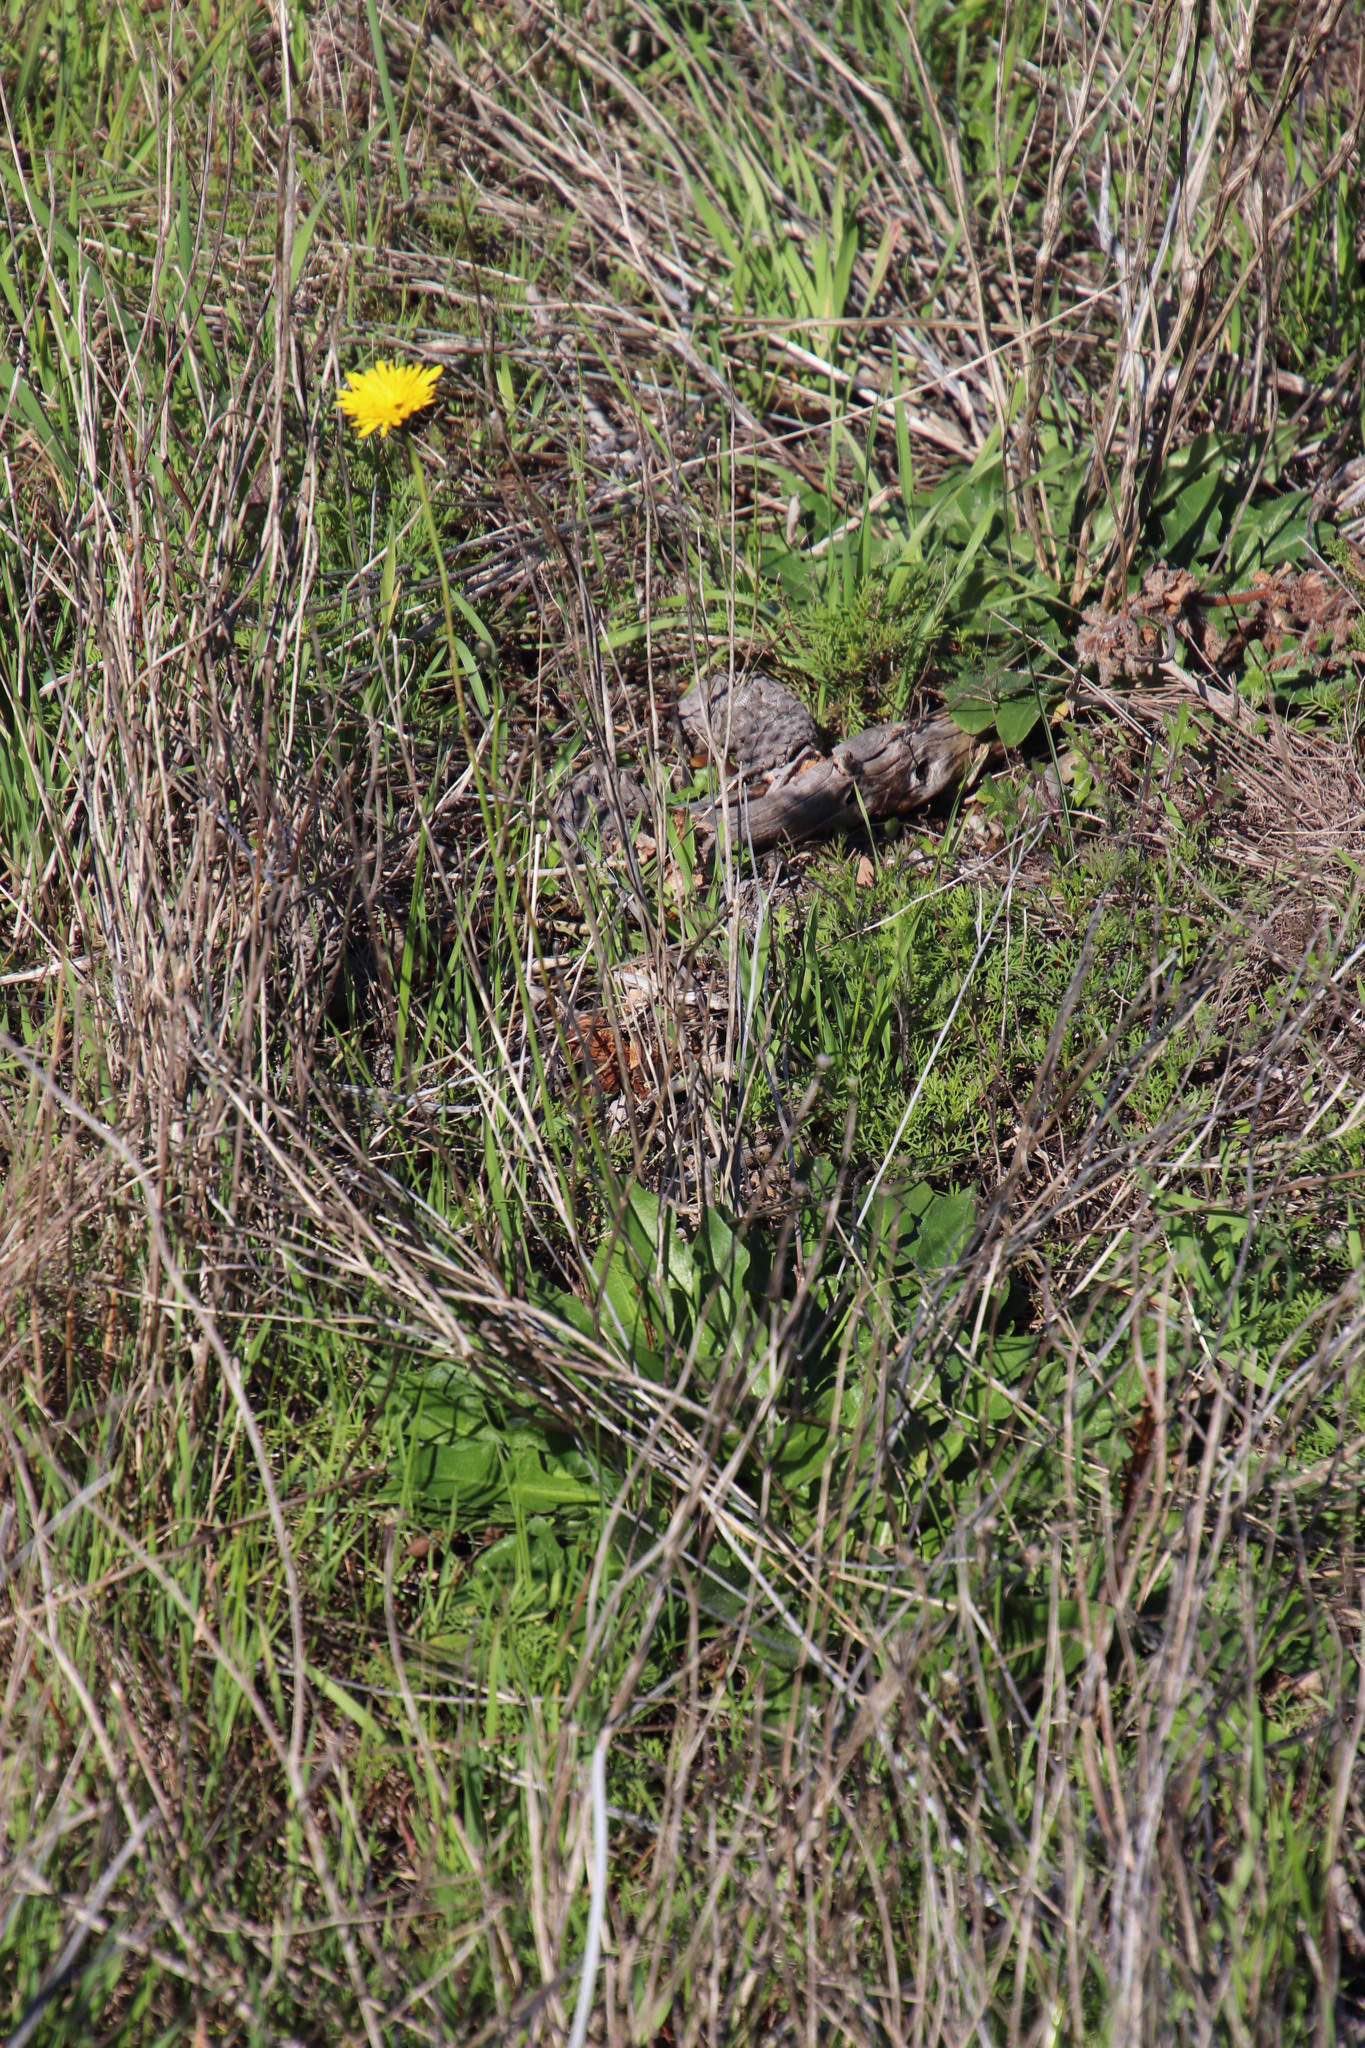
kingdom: Plantae
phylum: Tracheophyta
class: Magnoliopsida
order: Asterales
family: Asteraceae
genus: Hypochaeris
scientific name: Hypochaeris radicata
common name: Flatweed
